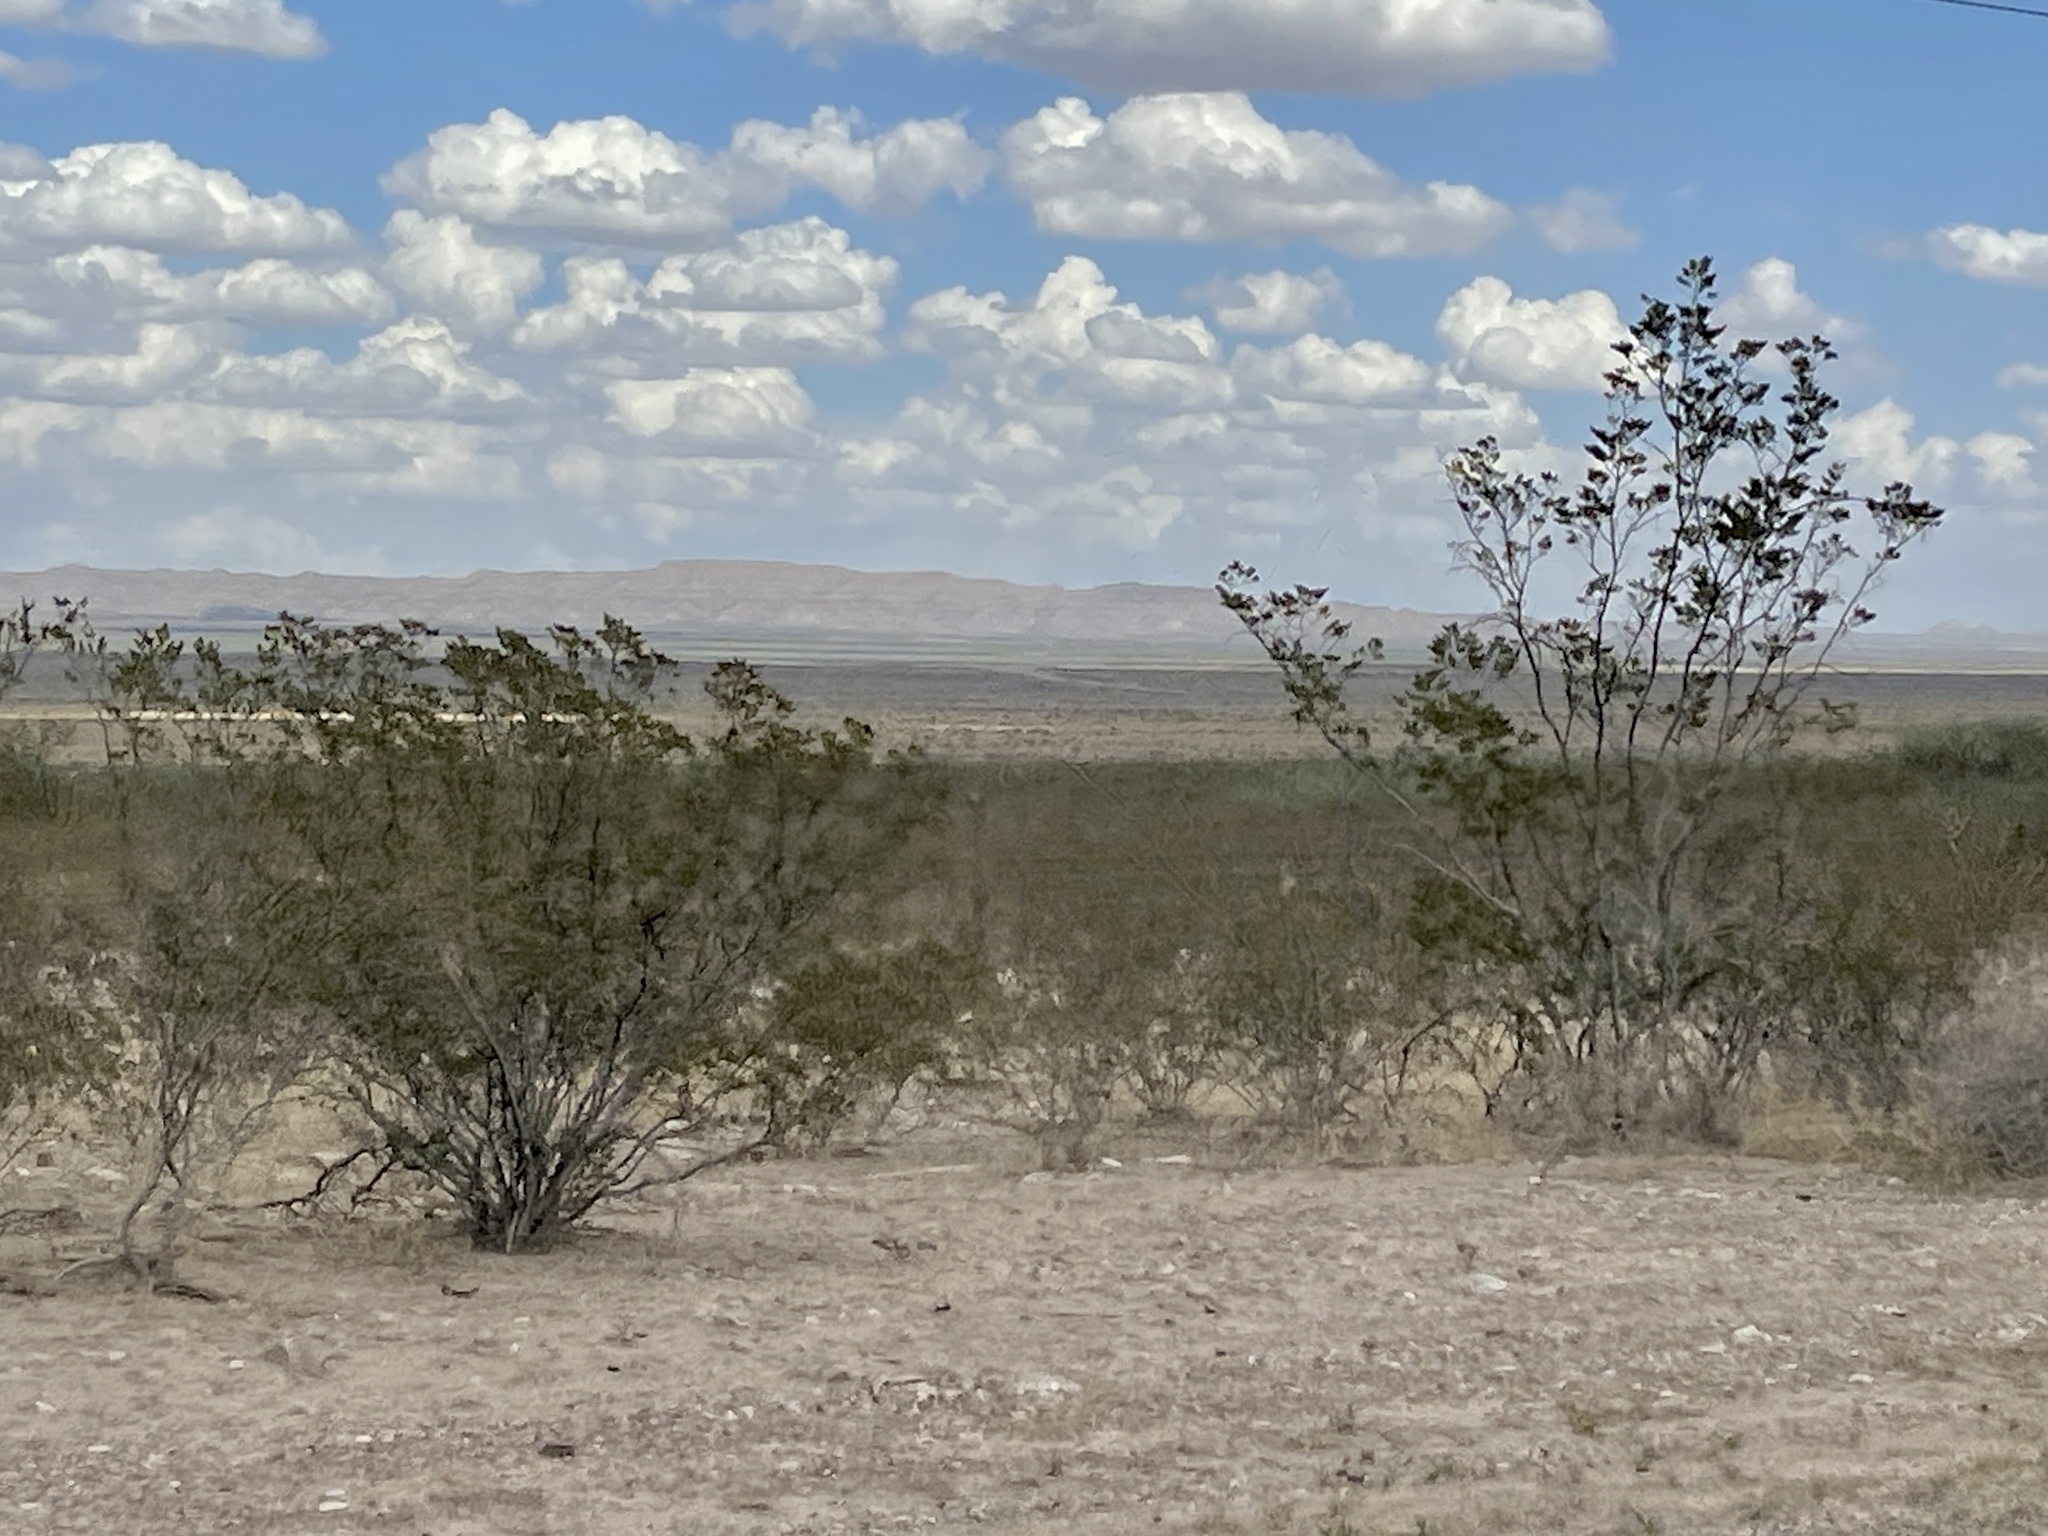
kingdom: Plantae
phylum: Tracheophyta
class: Magnoliopsida
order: Zygophyllales
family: Zygophyllaceae
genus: Larrea
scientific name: Larrea tridentata
